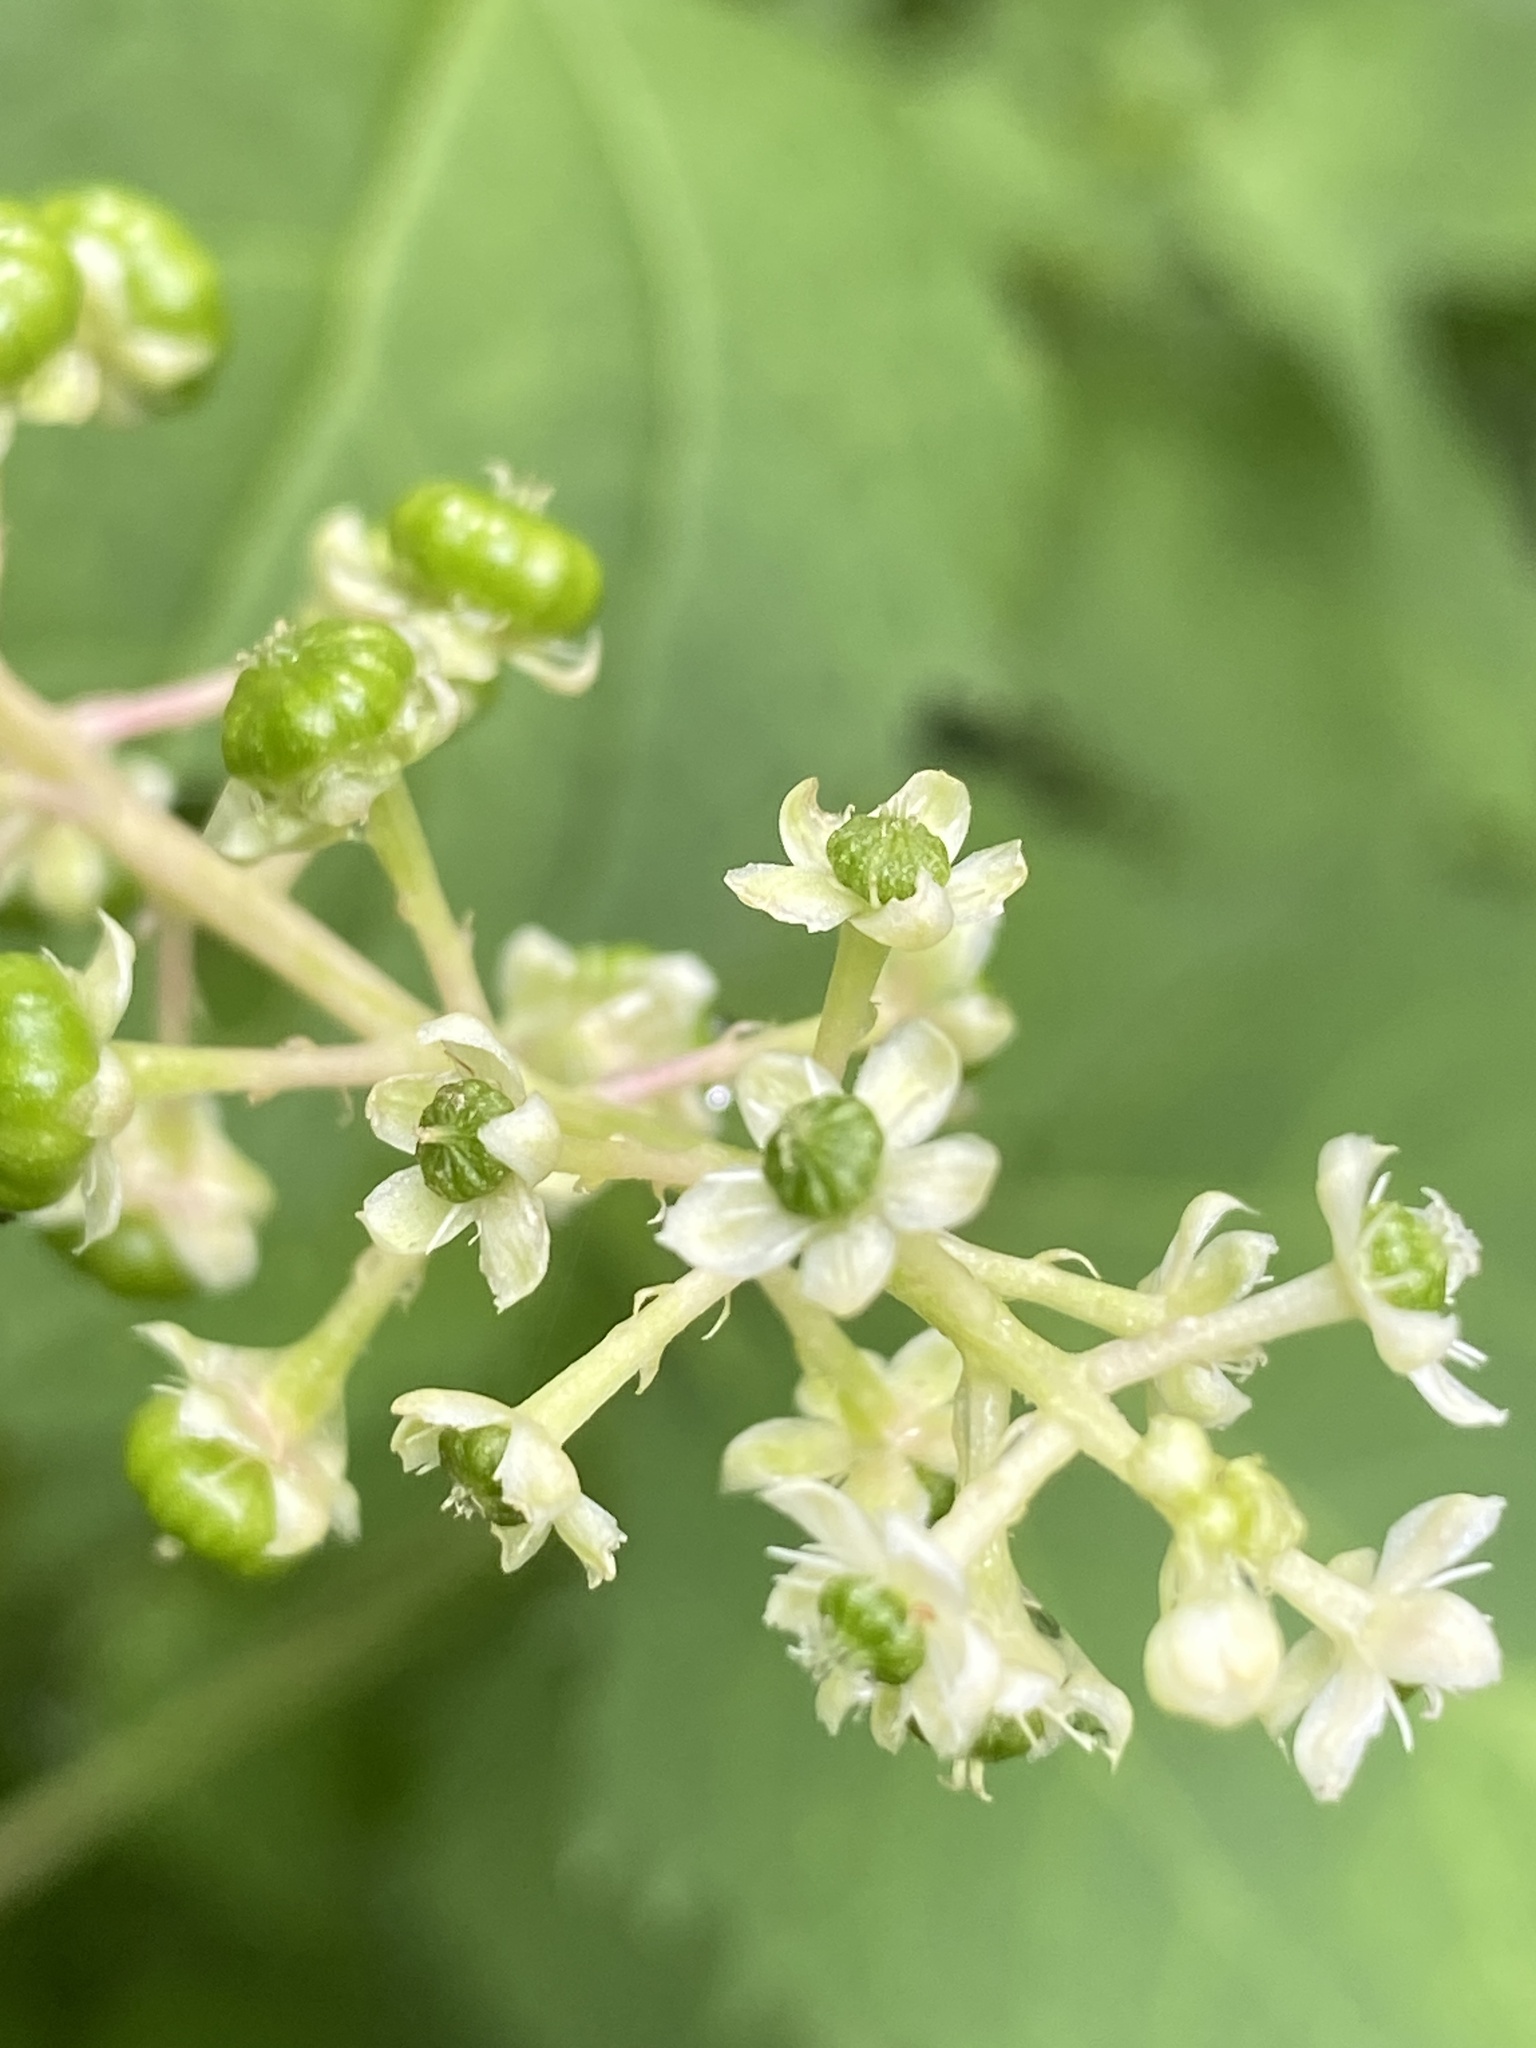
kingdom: Plantae
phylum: Tracheophyta
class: Magnoliopsida
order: Caryophyllales
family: Phytolaccaceae
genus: Phytolacca
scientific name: Phytolacca americana
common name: American pokeweed
